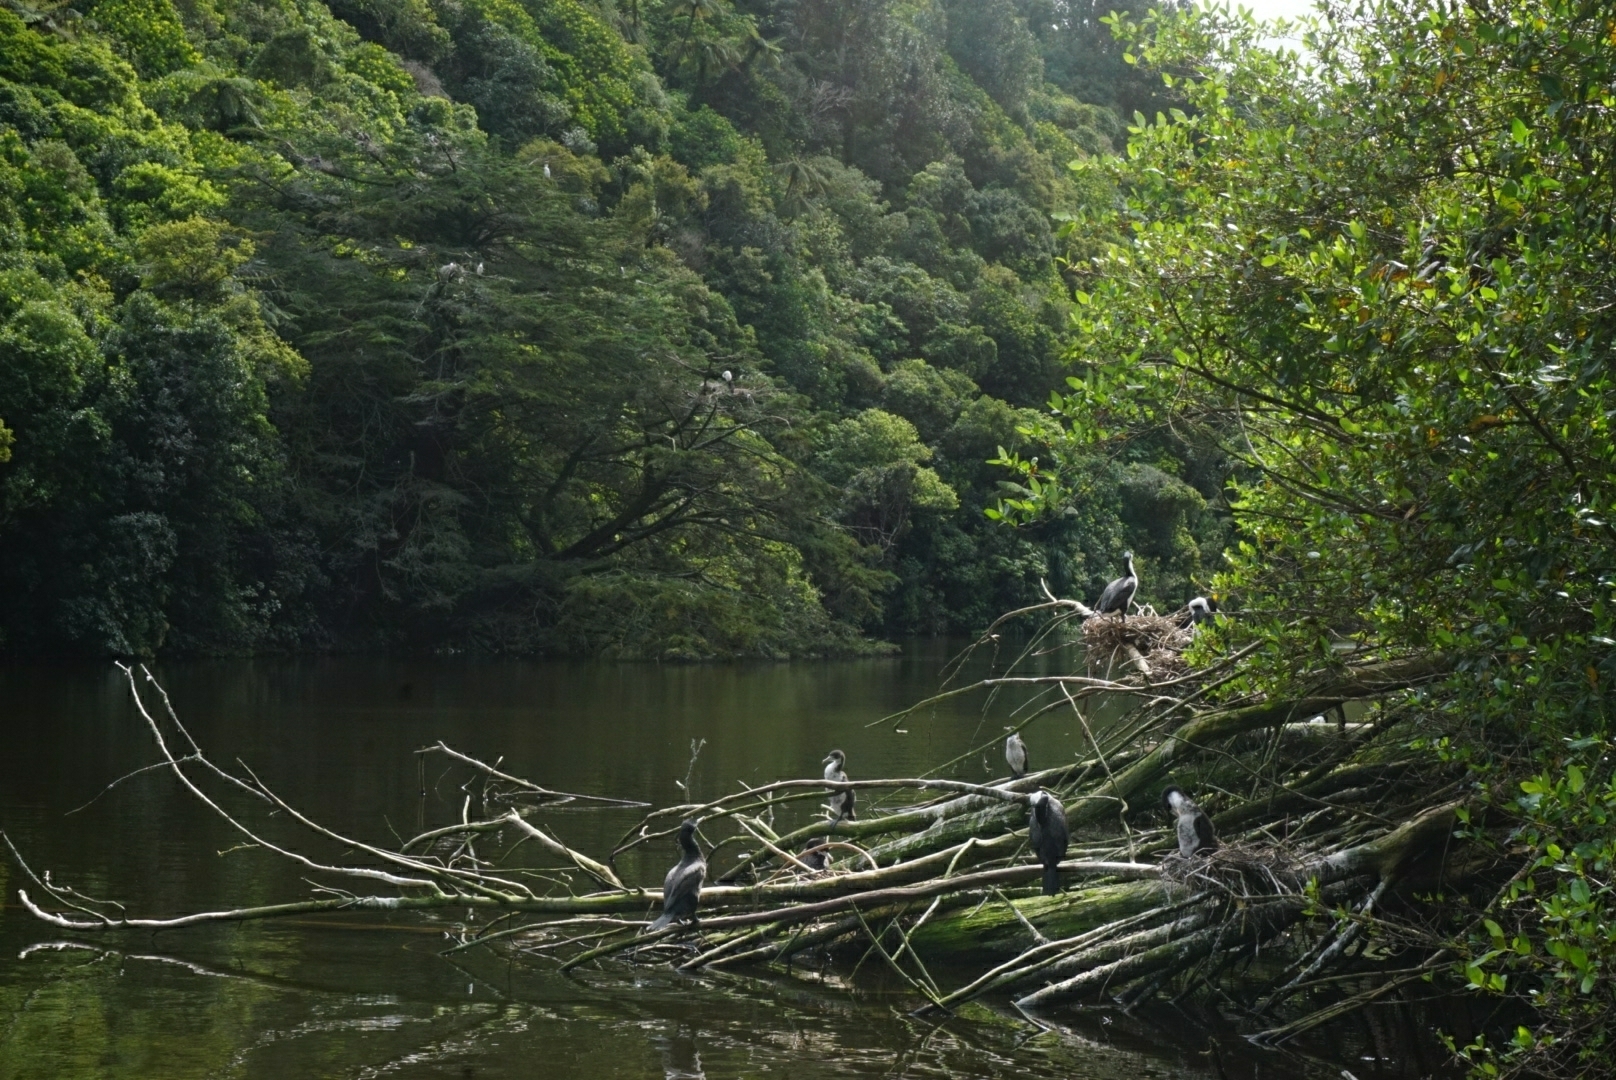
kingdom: Animalia
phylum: Chordata
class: Aves
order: Suliformes
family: Phalacrocoracidae
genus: Phalacrocorax
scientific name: Phalacrocorax varius
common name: Pied cormorant
